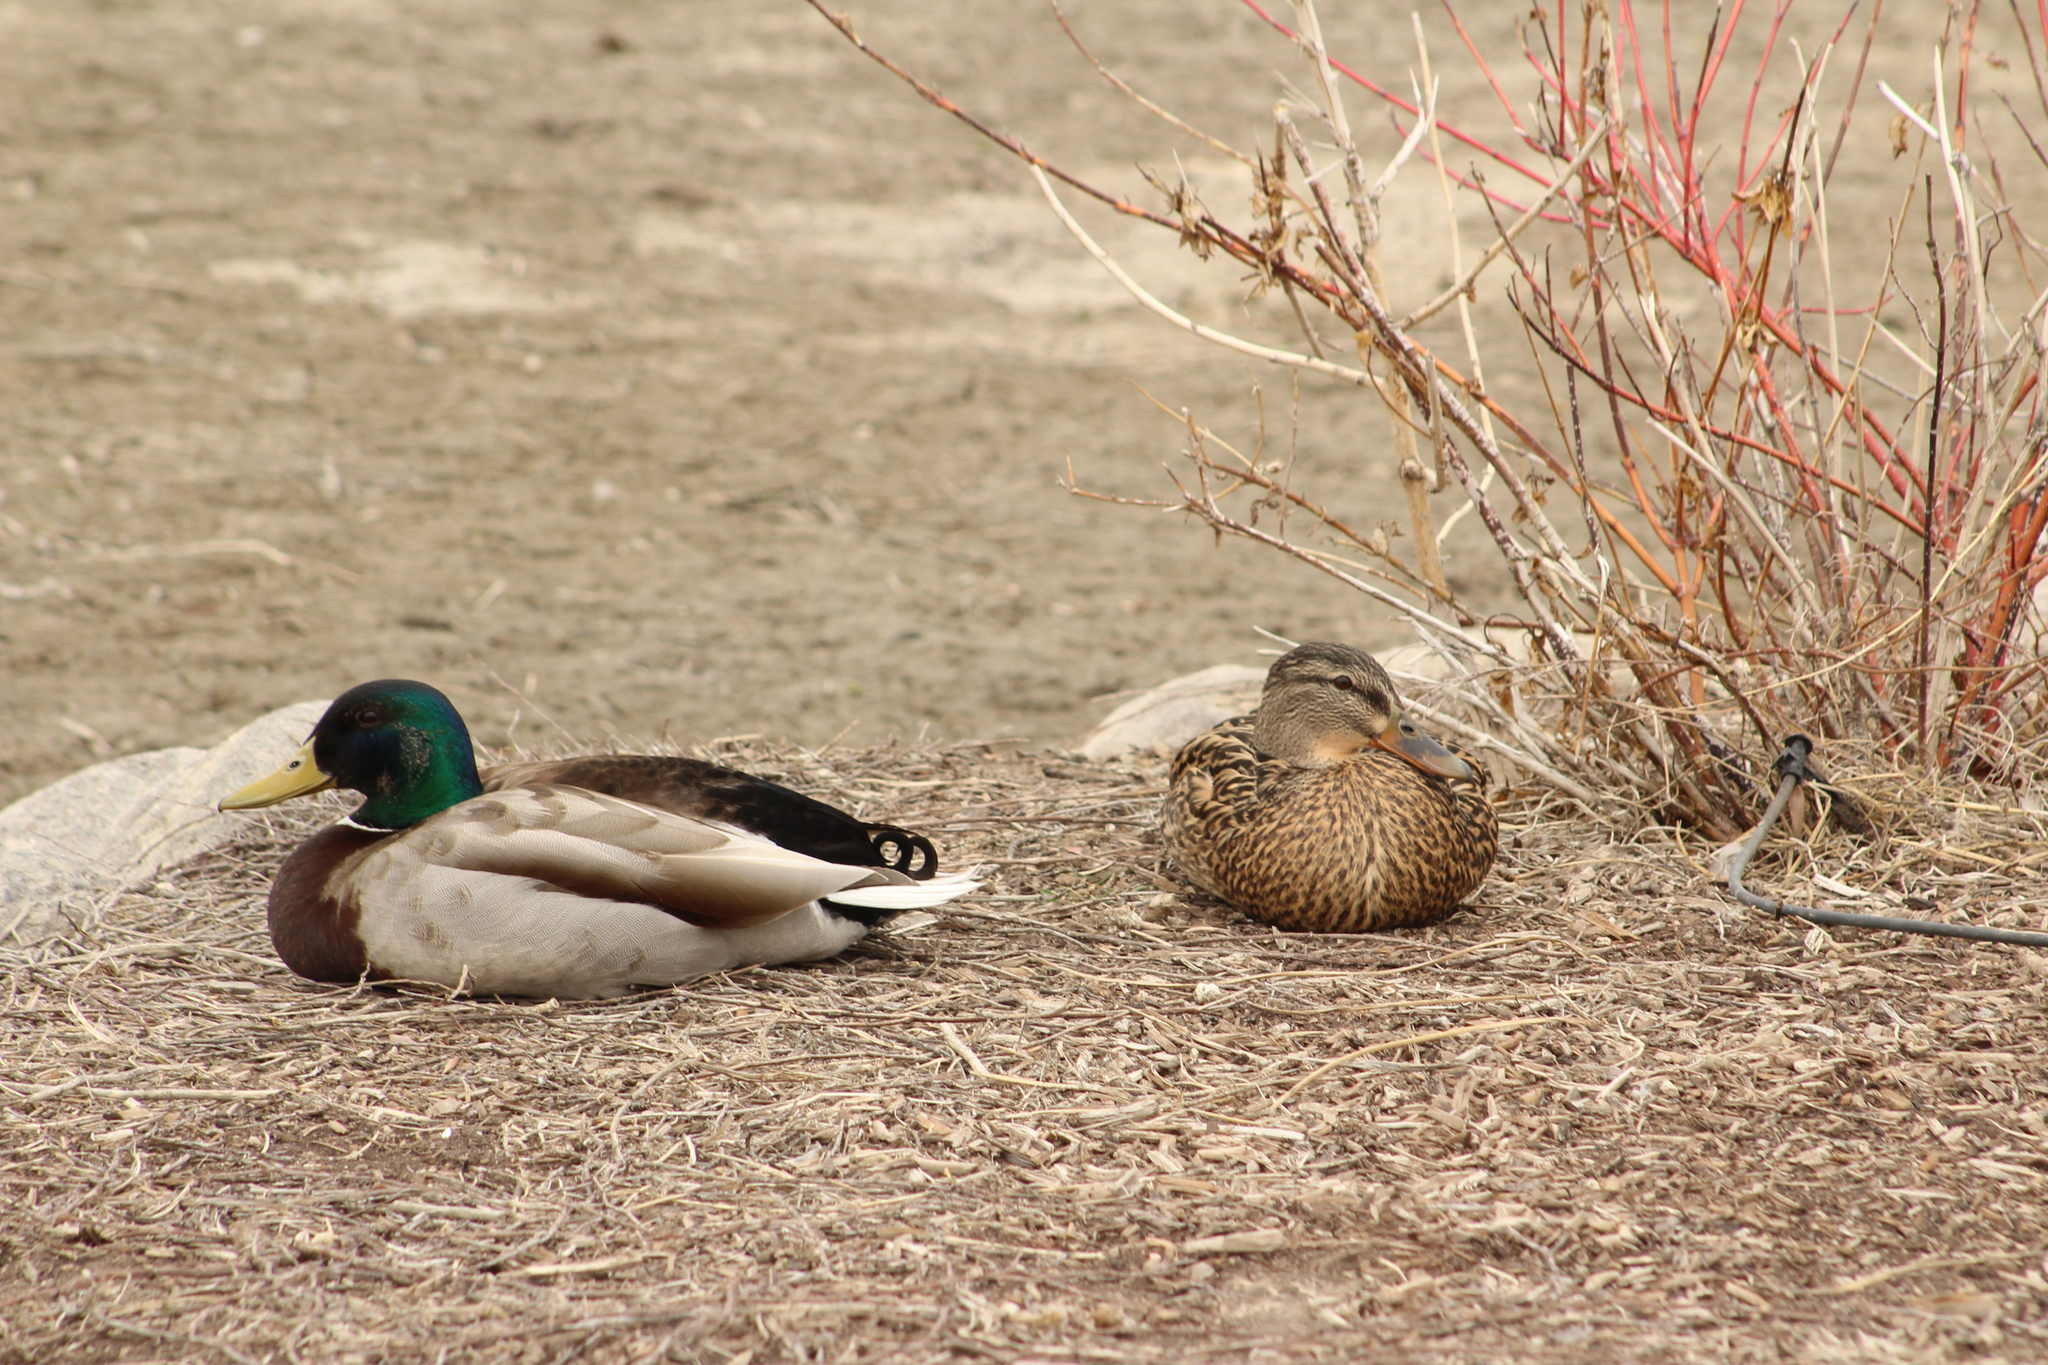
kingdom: Animalia
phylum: Chordata
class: Aves
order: Anseriformes
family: Anatidae
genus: Anas
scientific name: Anas platyrhynchos
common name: Mallard
